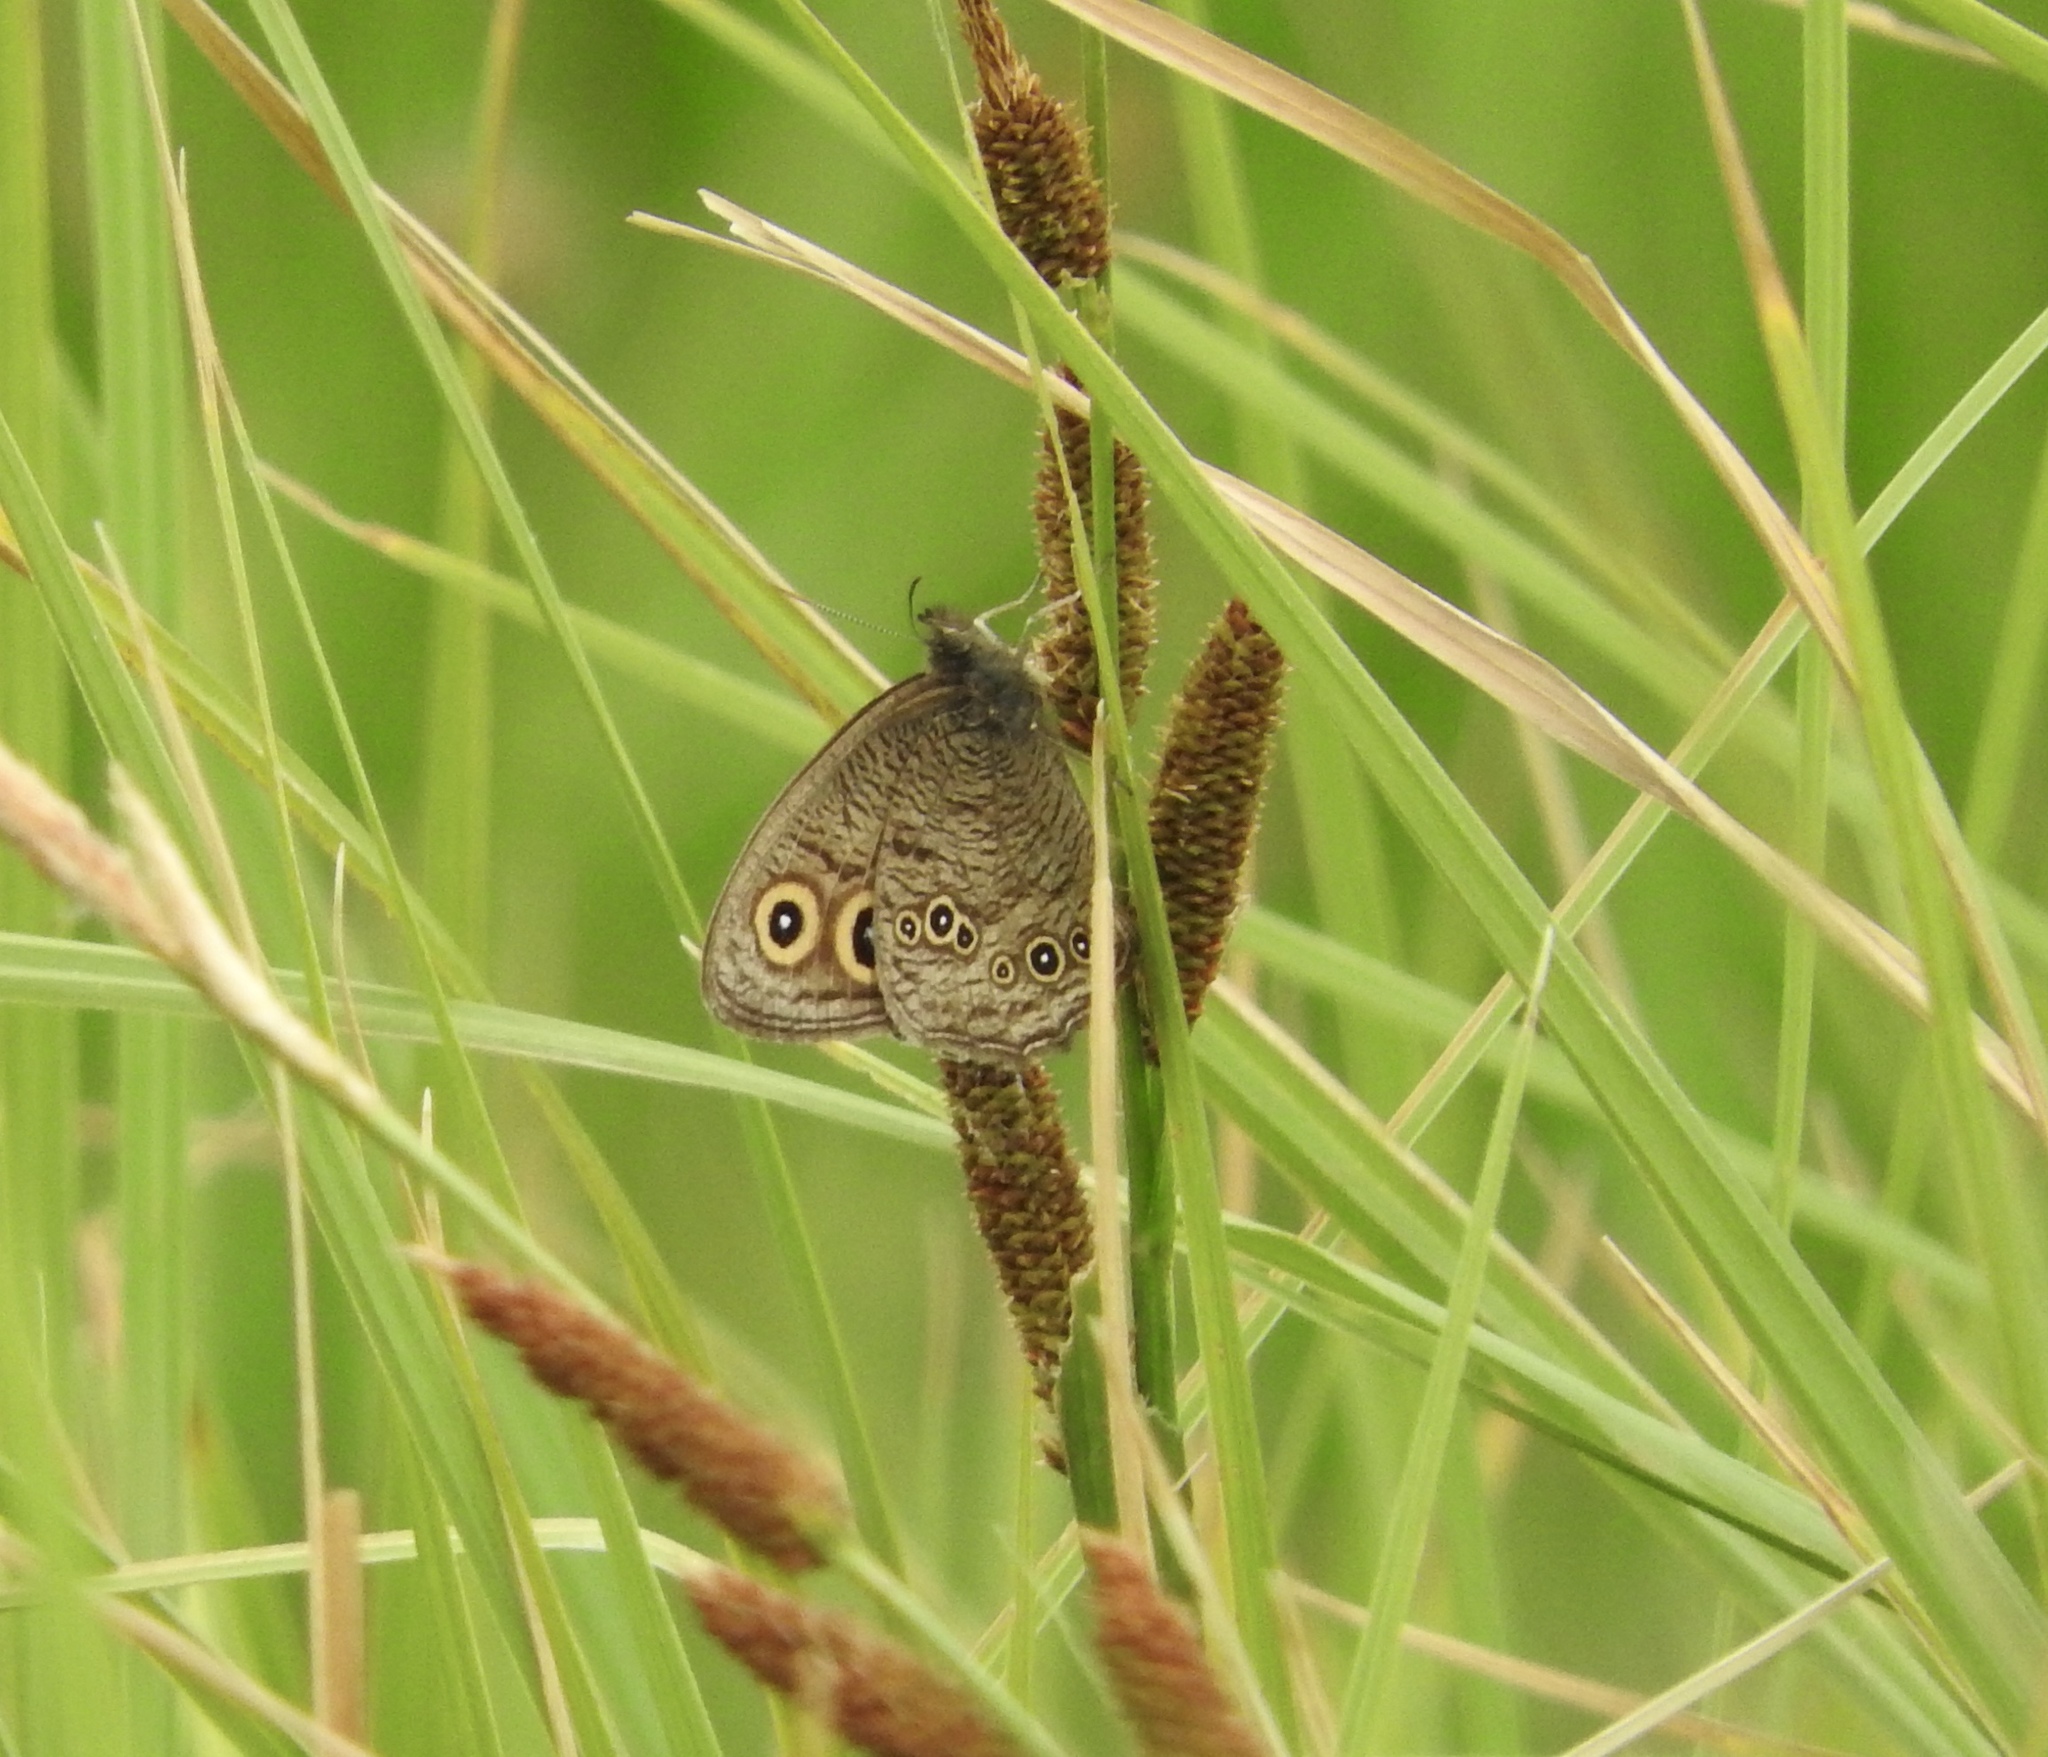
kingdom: Animalia
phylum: Arthropoda
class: Insecta
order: Lepidoptera
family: Nymphalidae
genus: Cercyonis
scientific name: Cercyonis pegala
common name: Common wood-nymph
